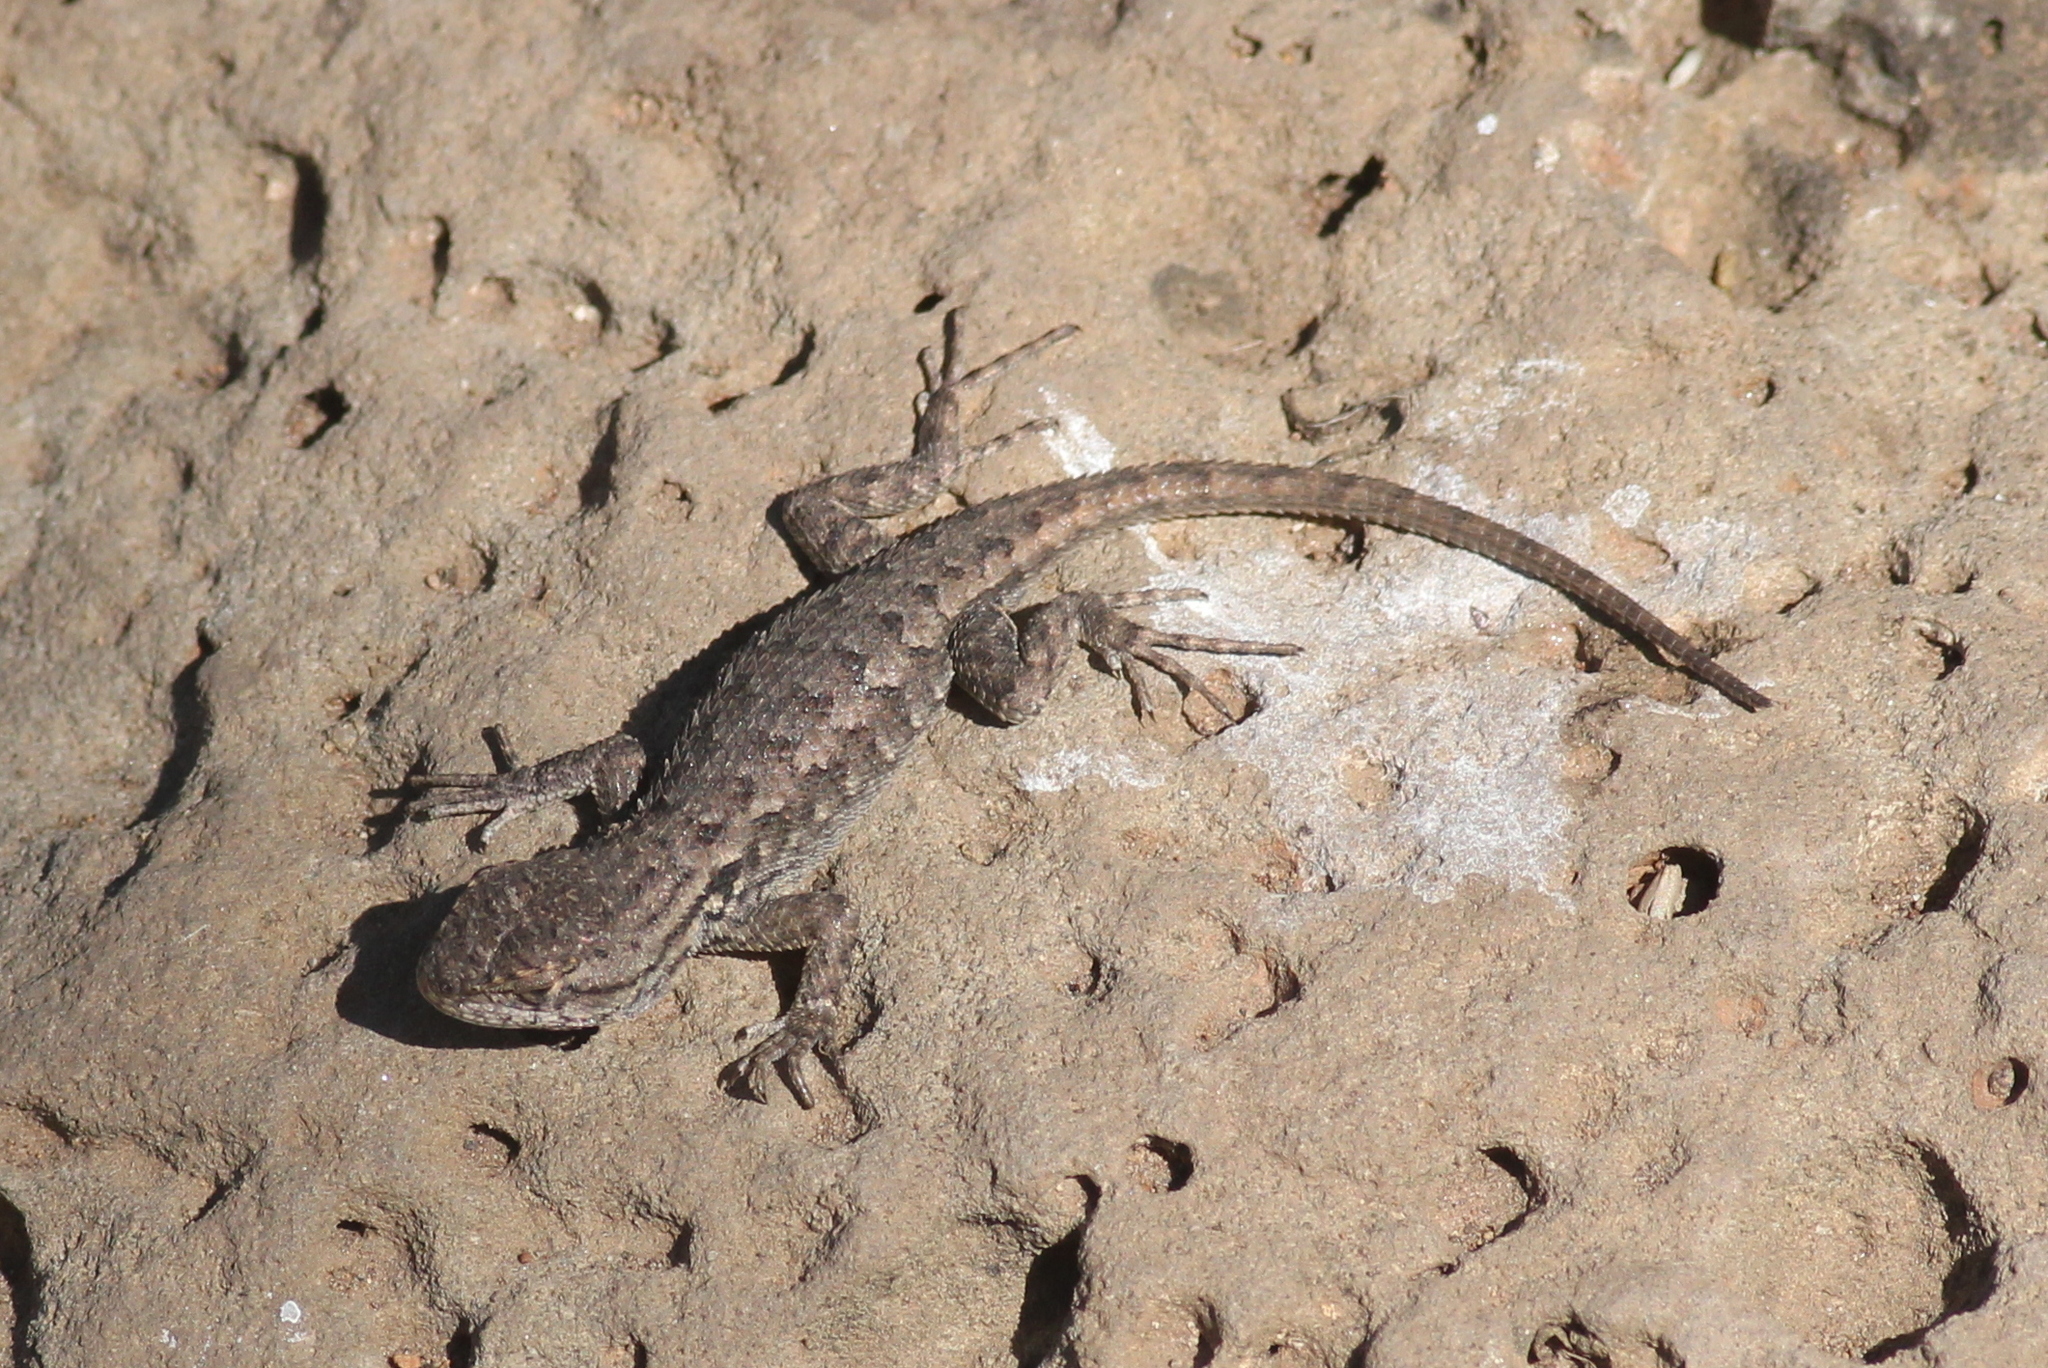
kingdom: Animalia
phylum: Chordata
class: Squamata
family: Phrynosomatidae
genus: Sceloporus
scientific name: Sceloporus graciosus
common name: Sagebrush lizard
